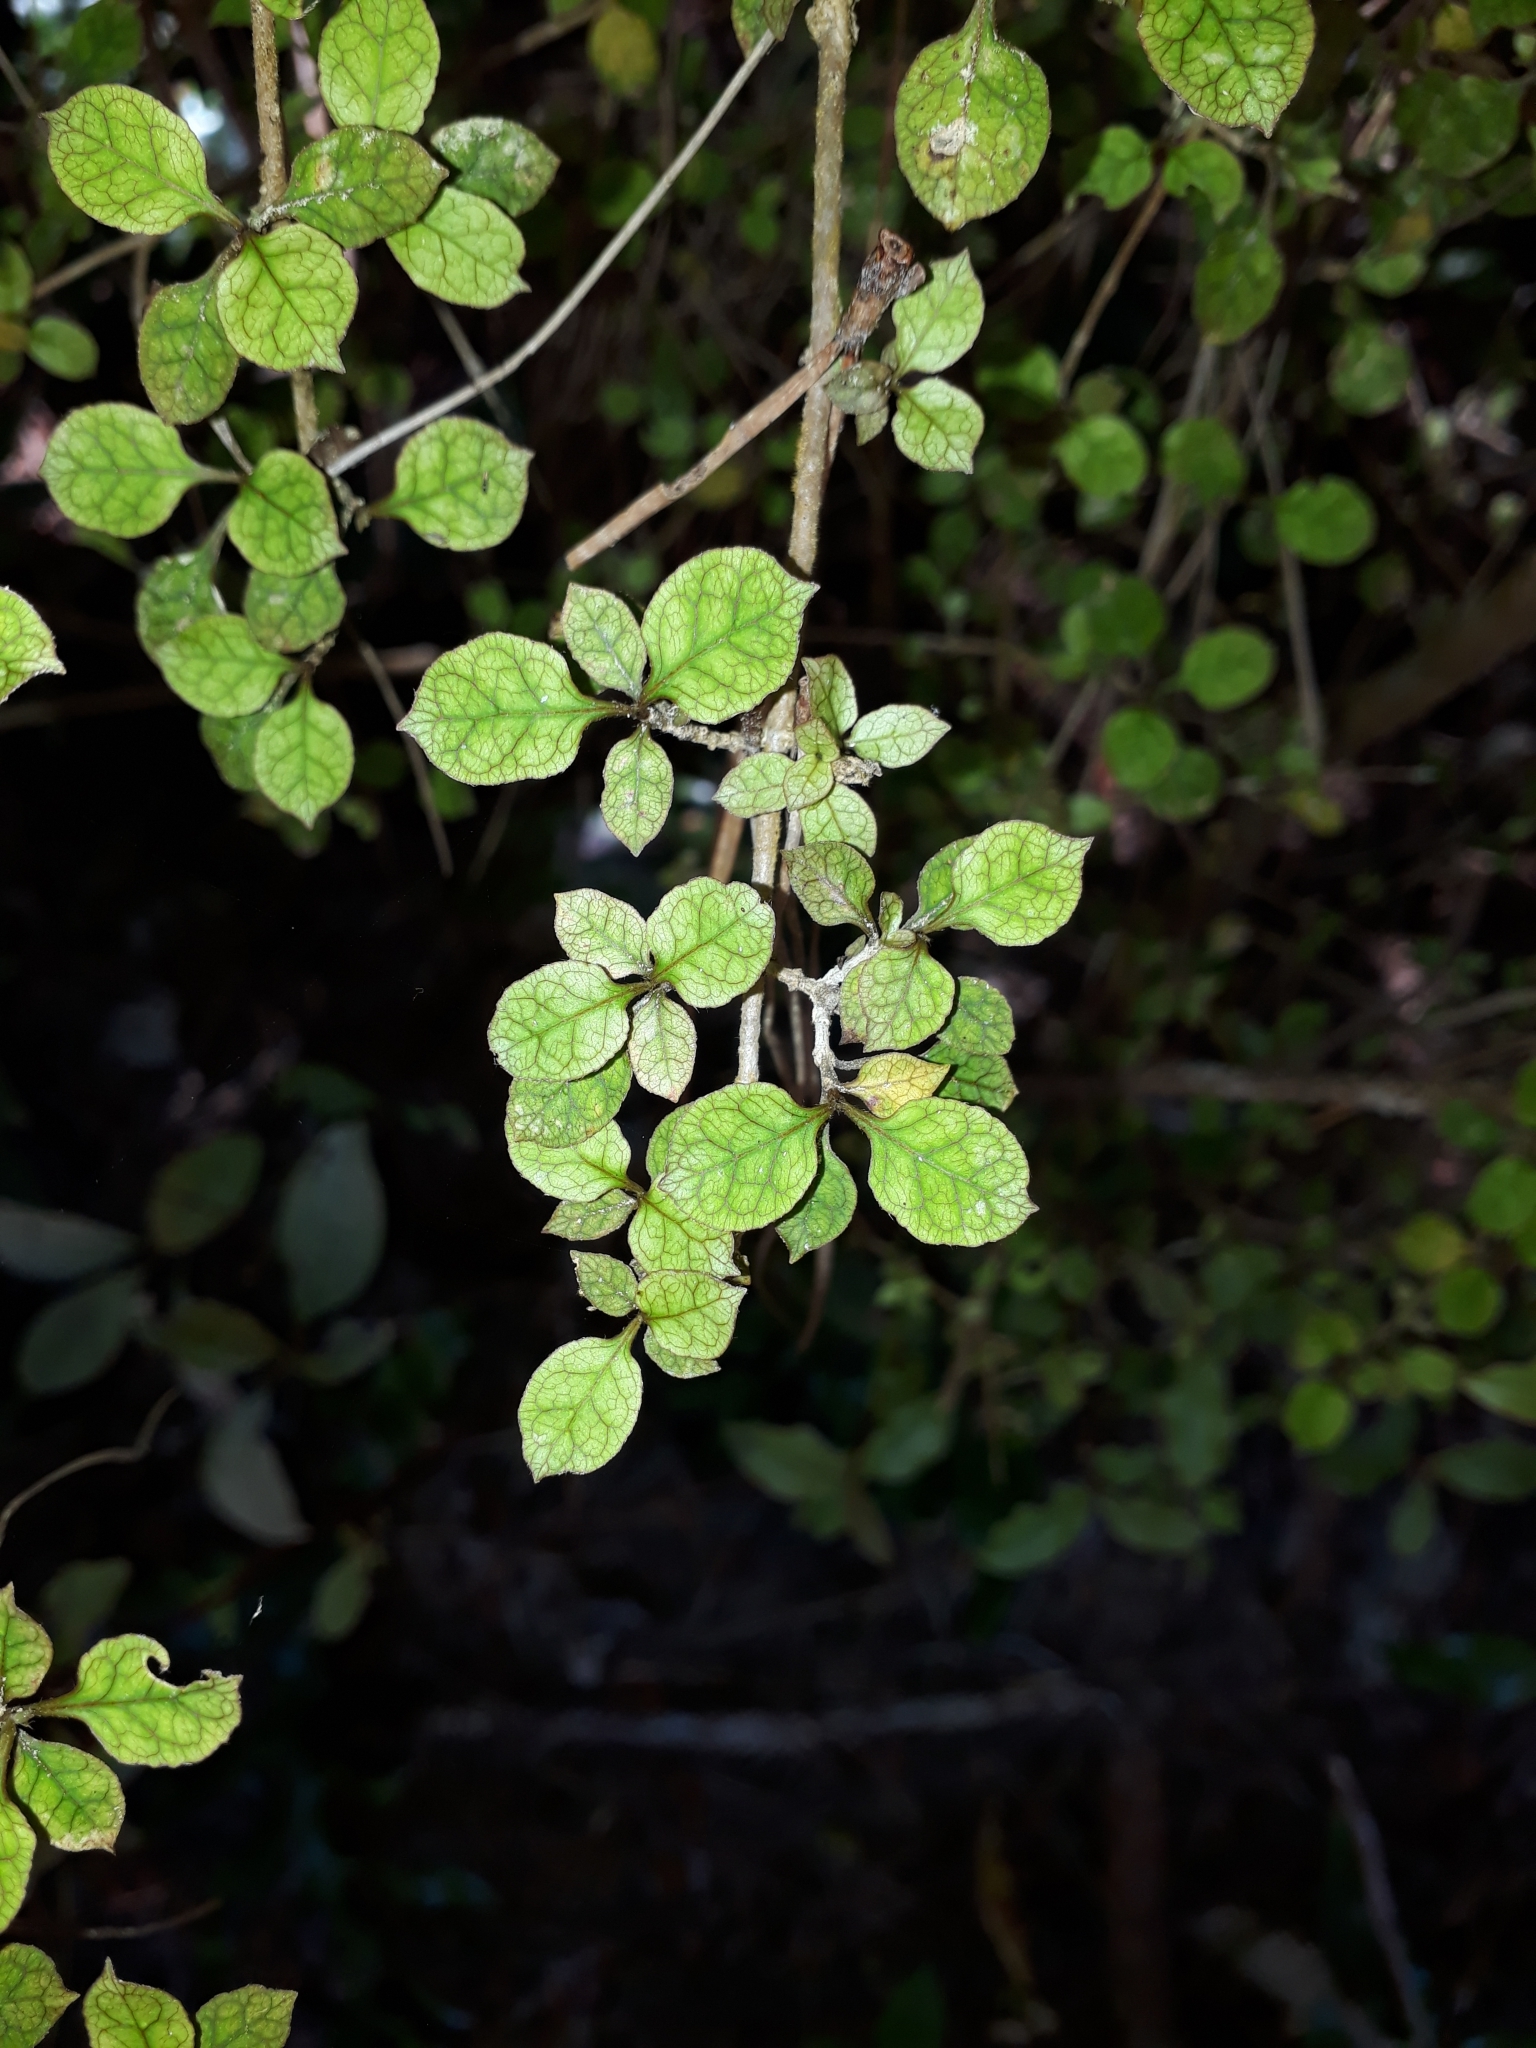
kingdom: Plantae
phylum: Tracheophyta
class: Magnoliopsida
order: Gentianales
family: Rubiaceae
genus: Coprosma
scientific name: Coprosma areolata
